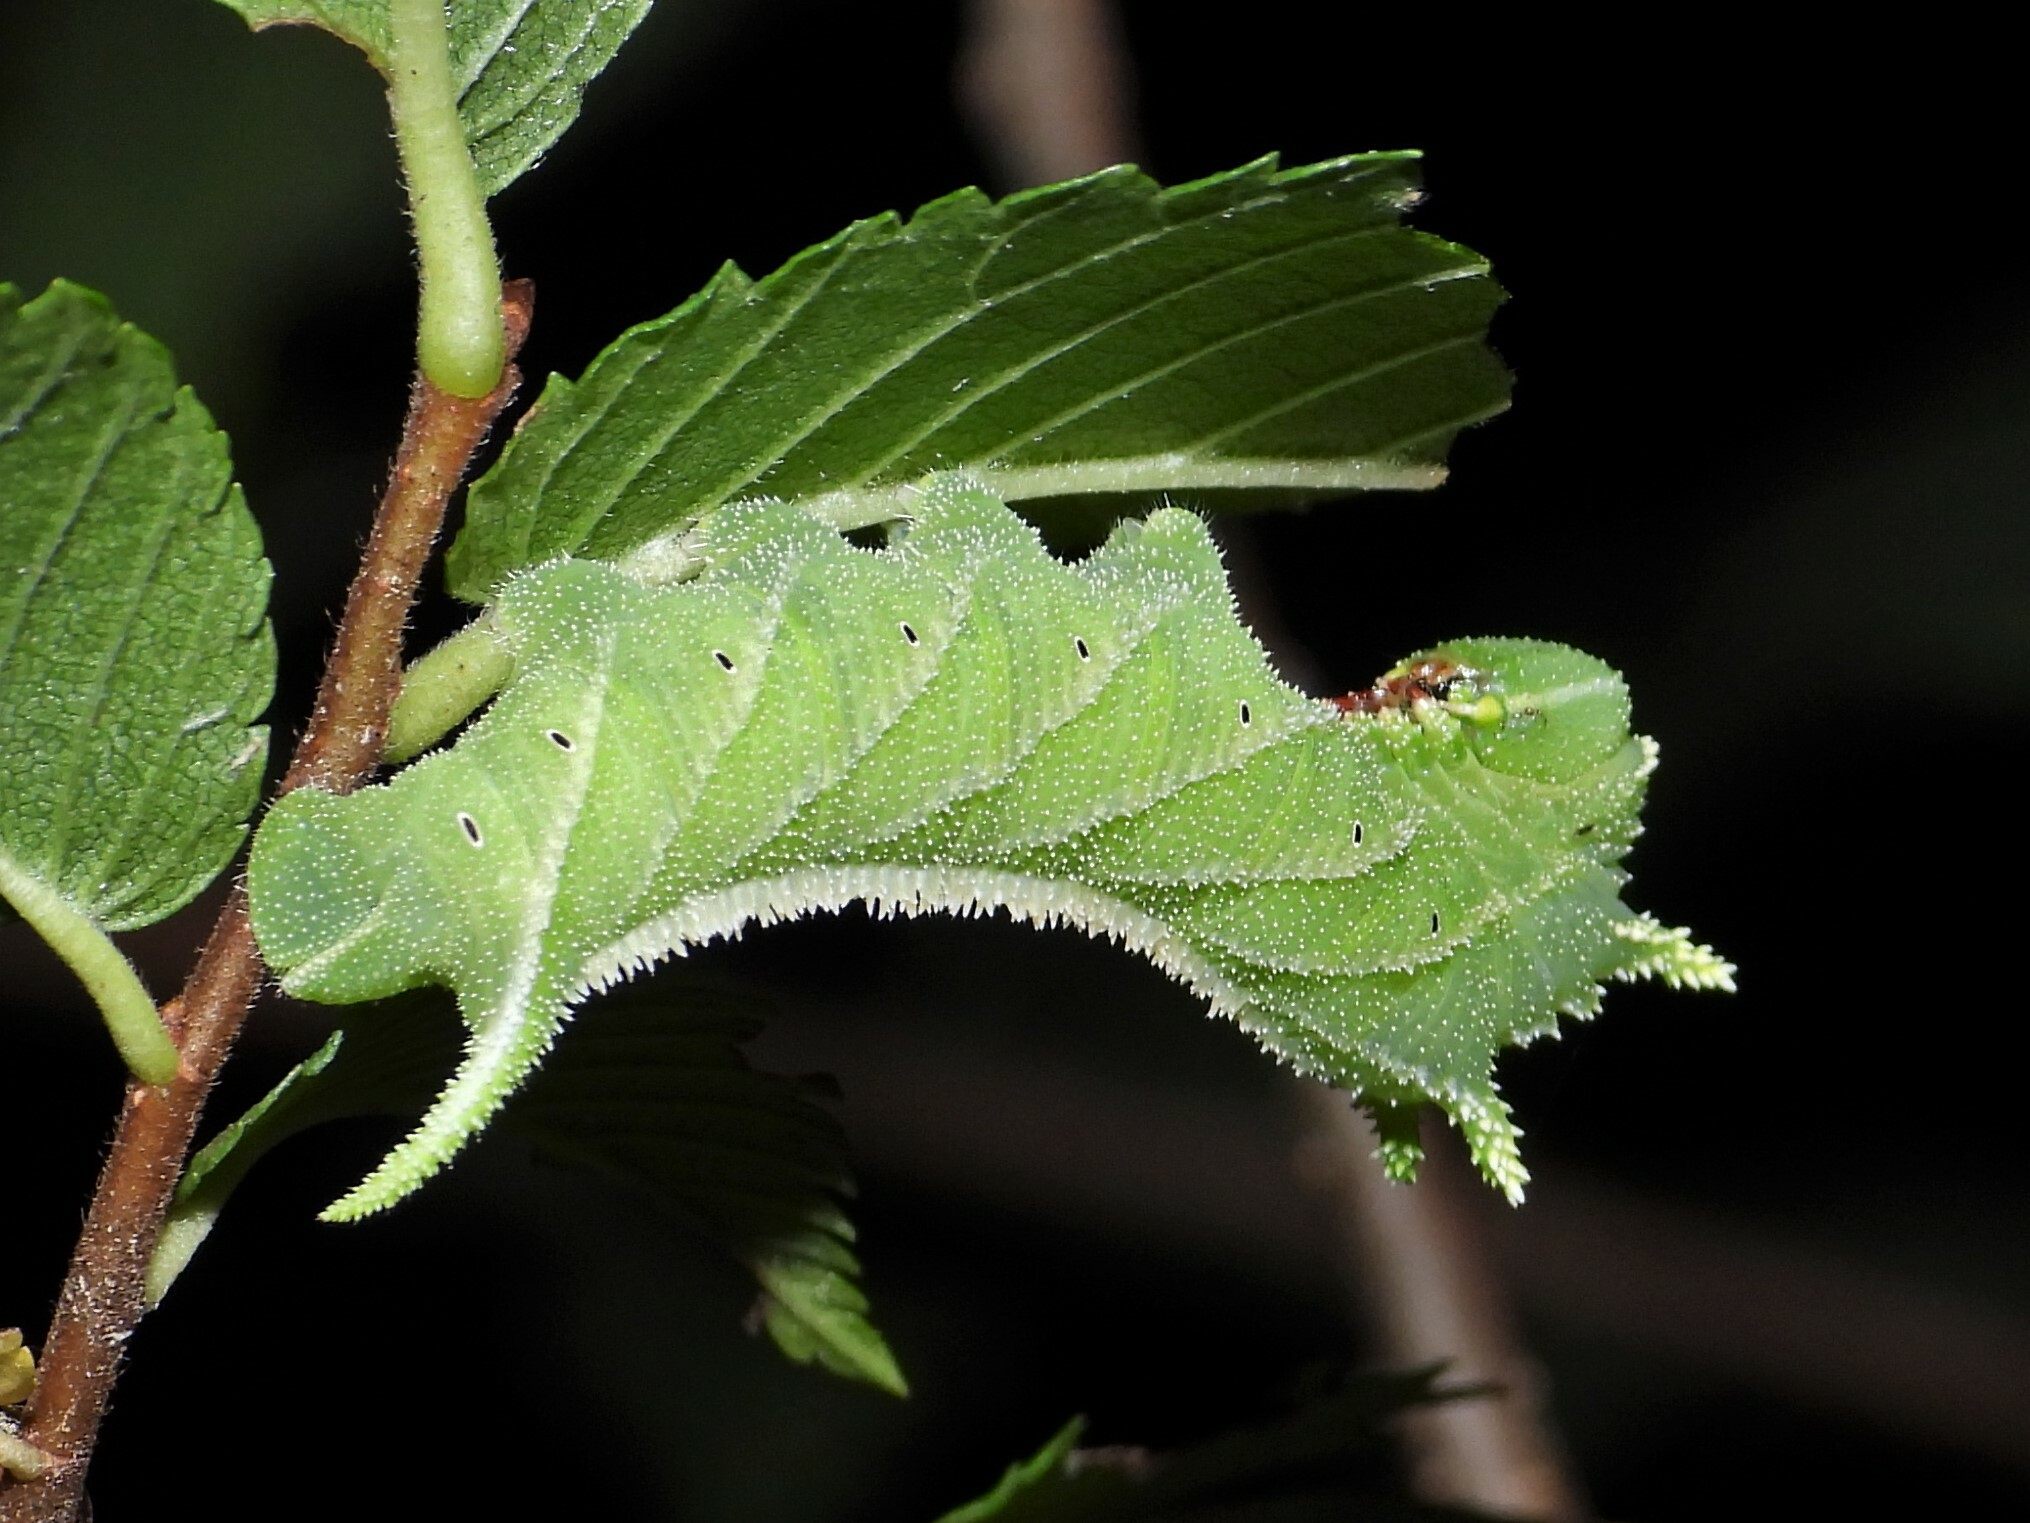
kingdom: Animalia
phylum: Arthropoda
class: Insecta
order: Lepidoptera
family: Sphingidae
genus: Ceratomia
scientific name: Ceratomia amyntor
